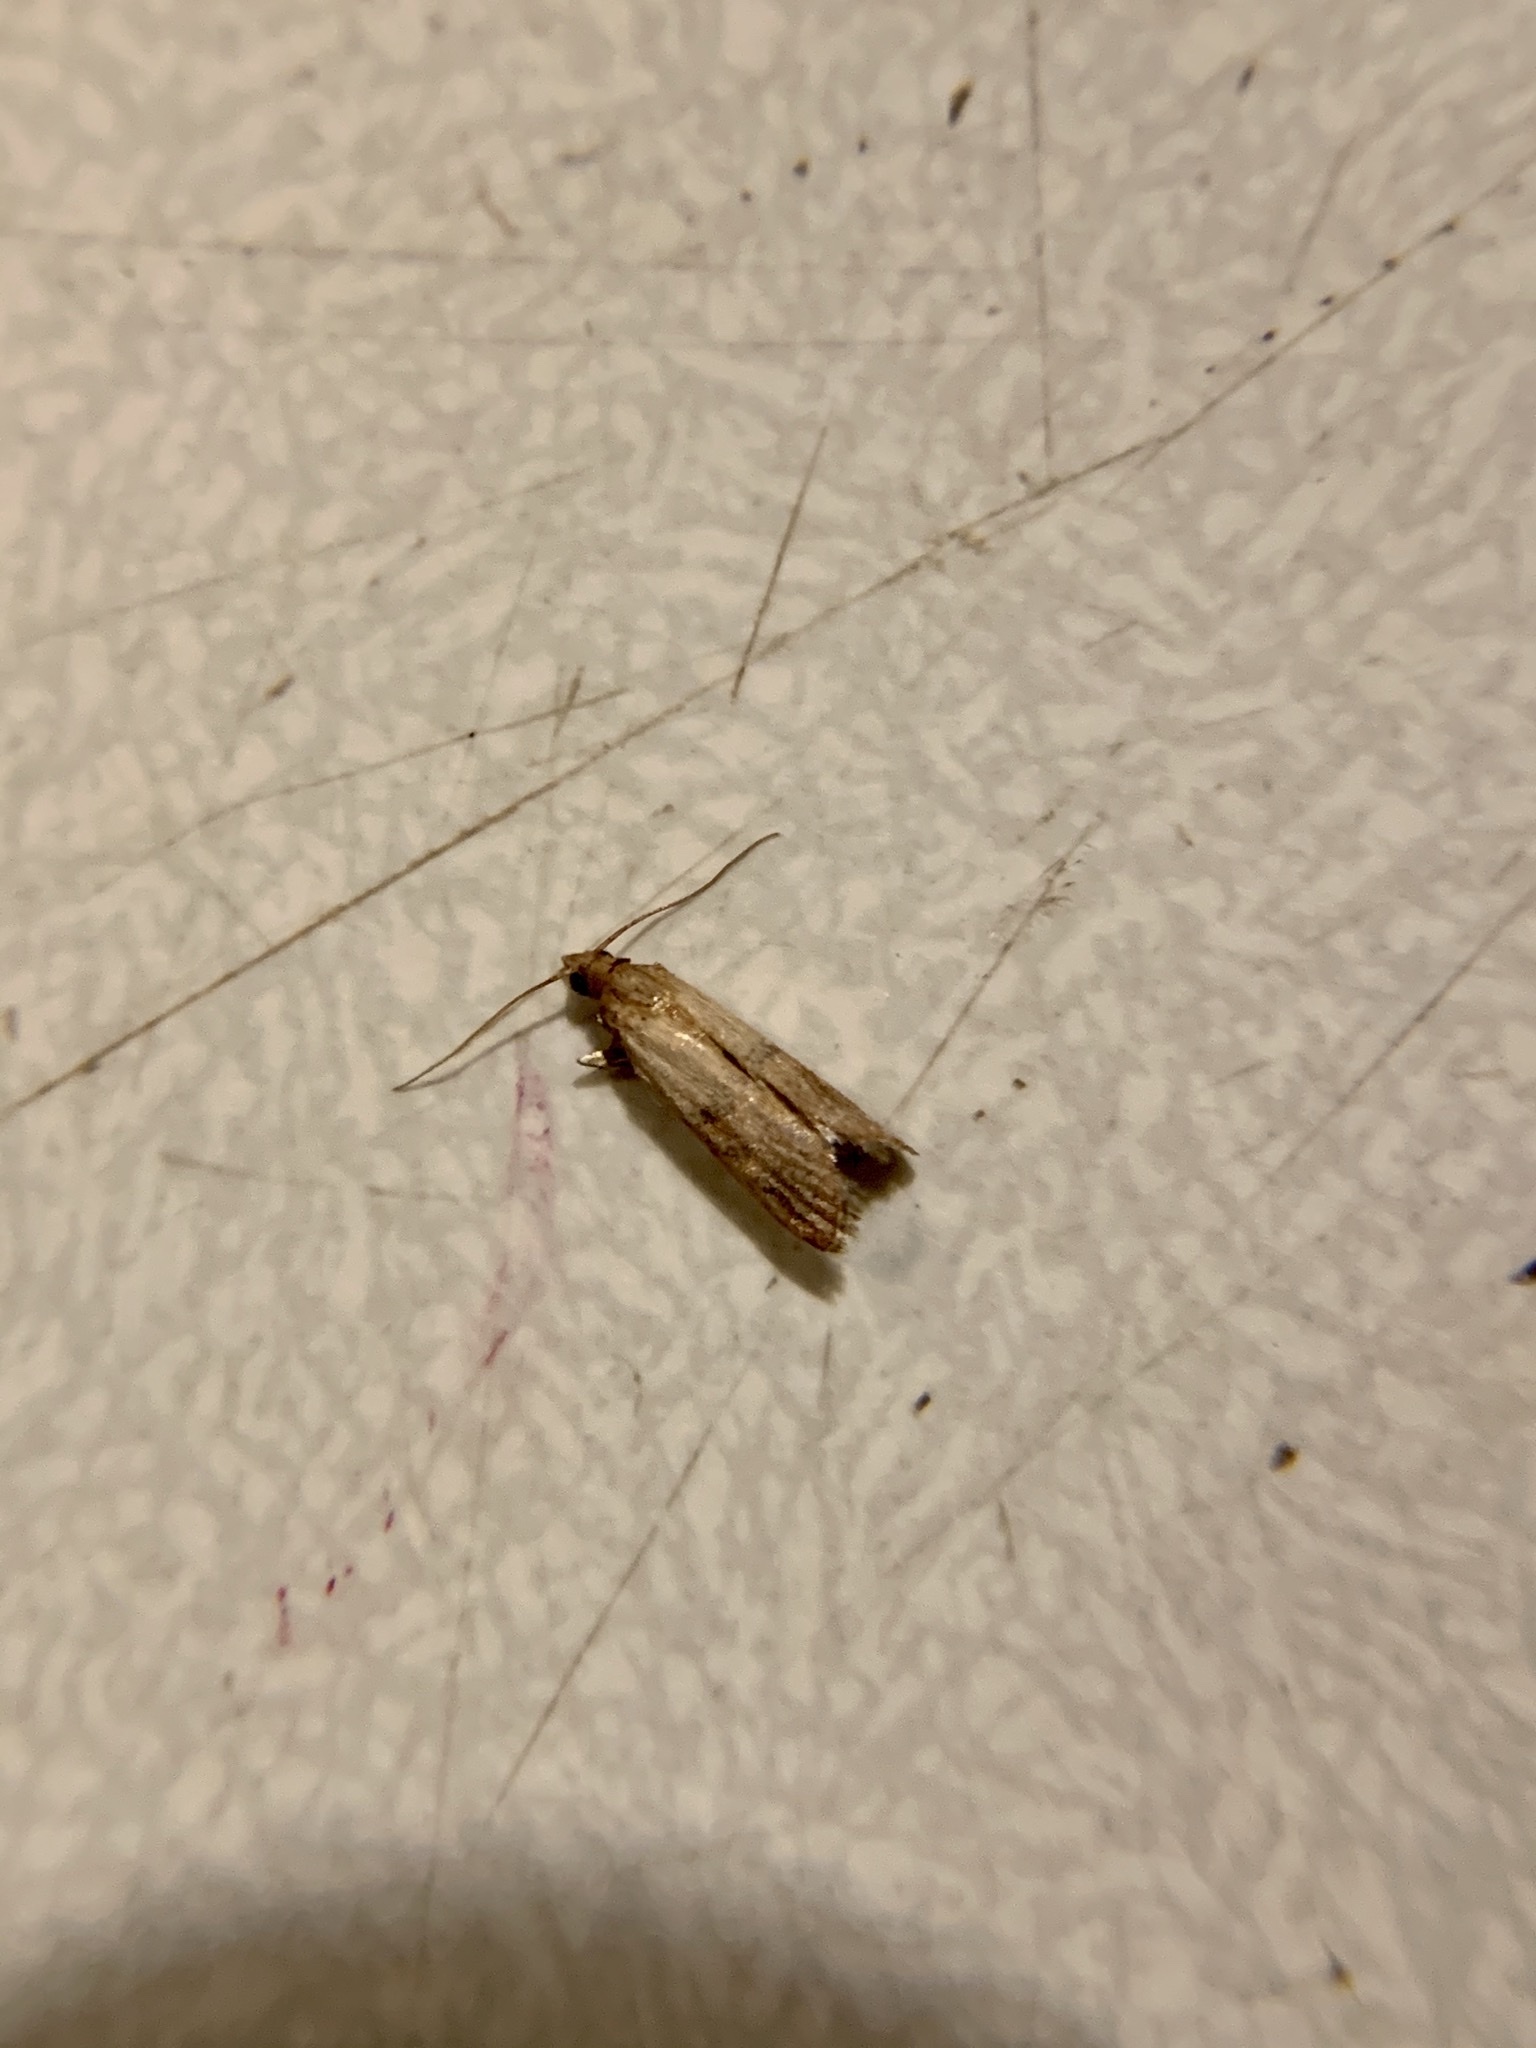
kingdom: Animalia
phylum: Arthropoda
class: Insecta
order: Lepidoptera
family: Pyralidae
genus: Plodia
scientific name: Plodia interpunctella
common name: Indian meal moth
